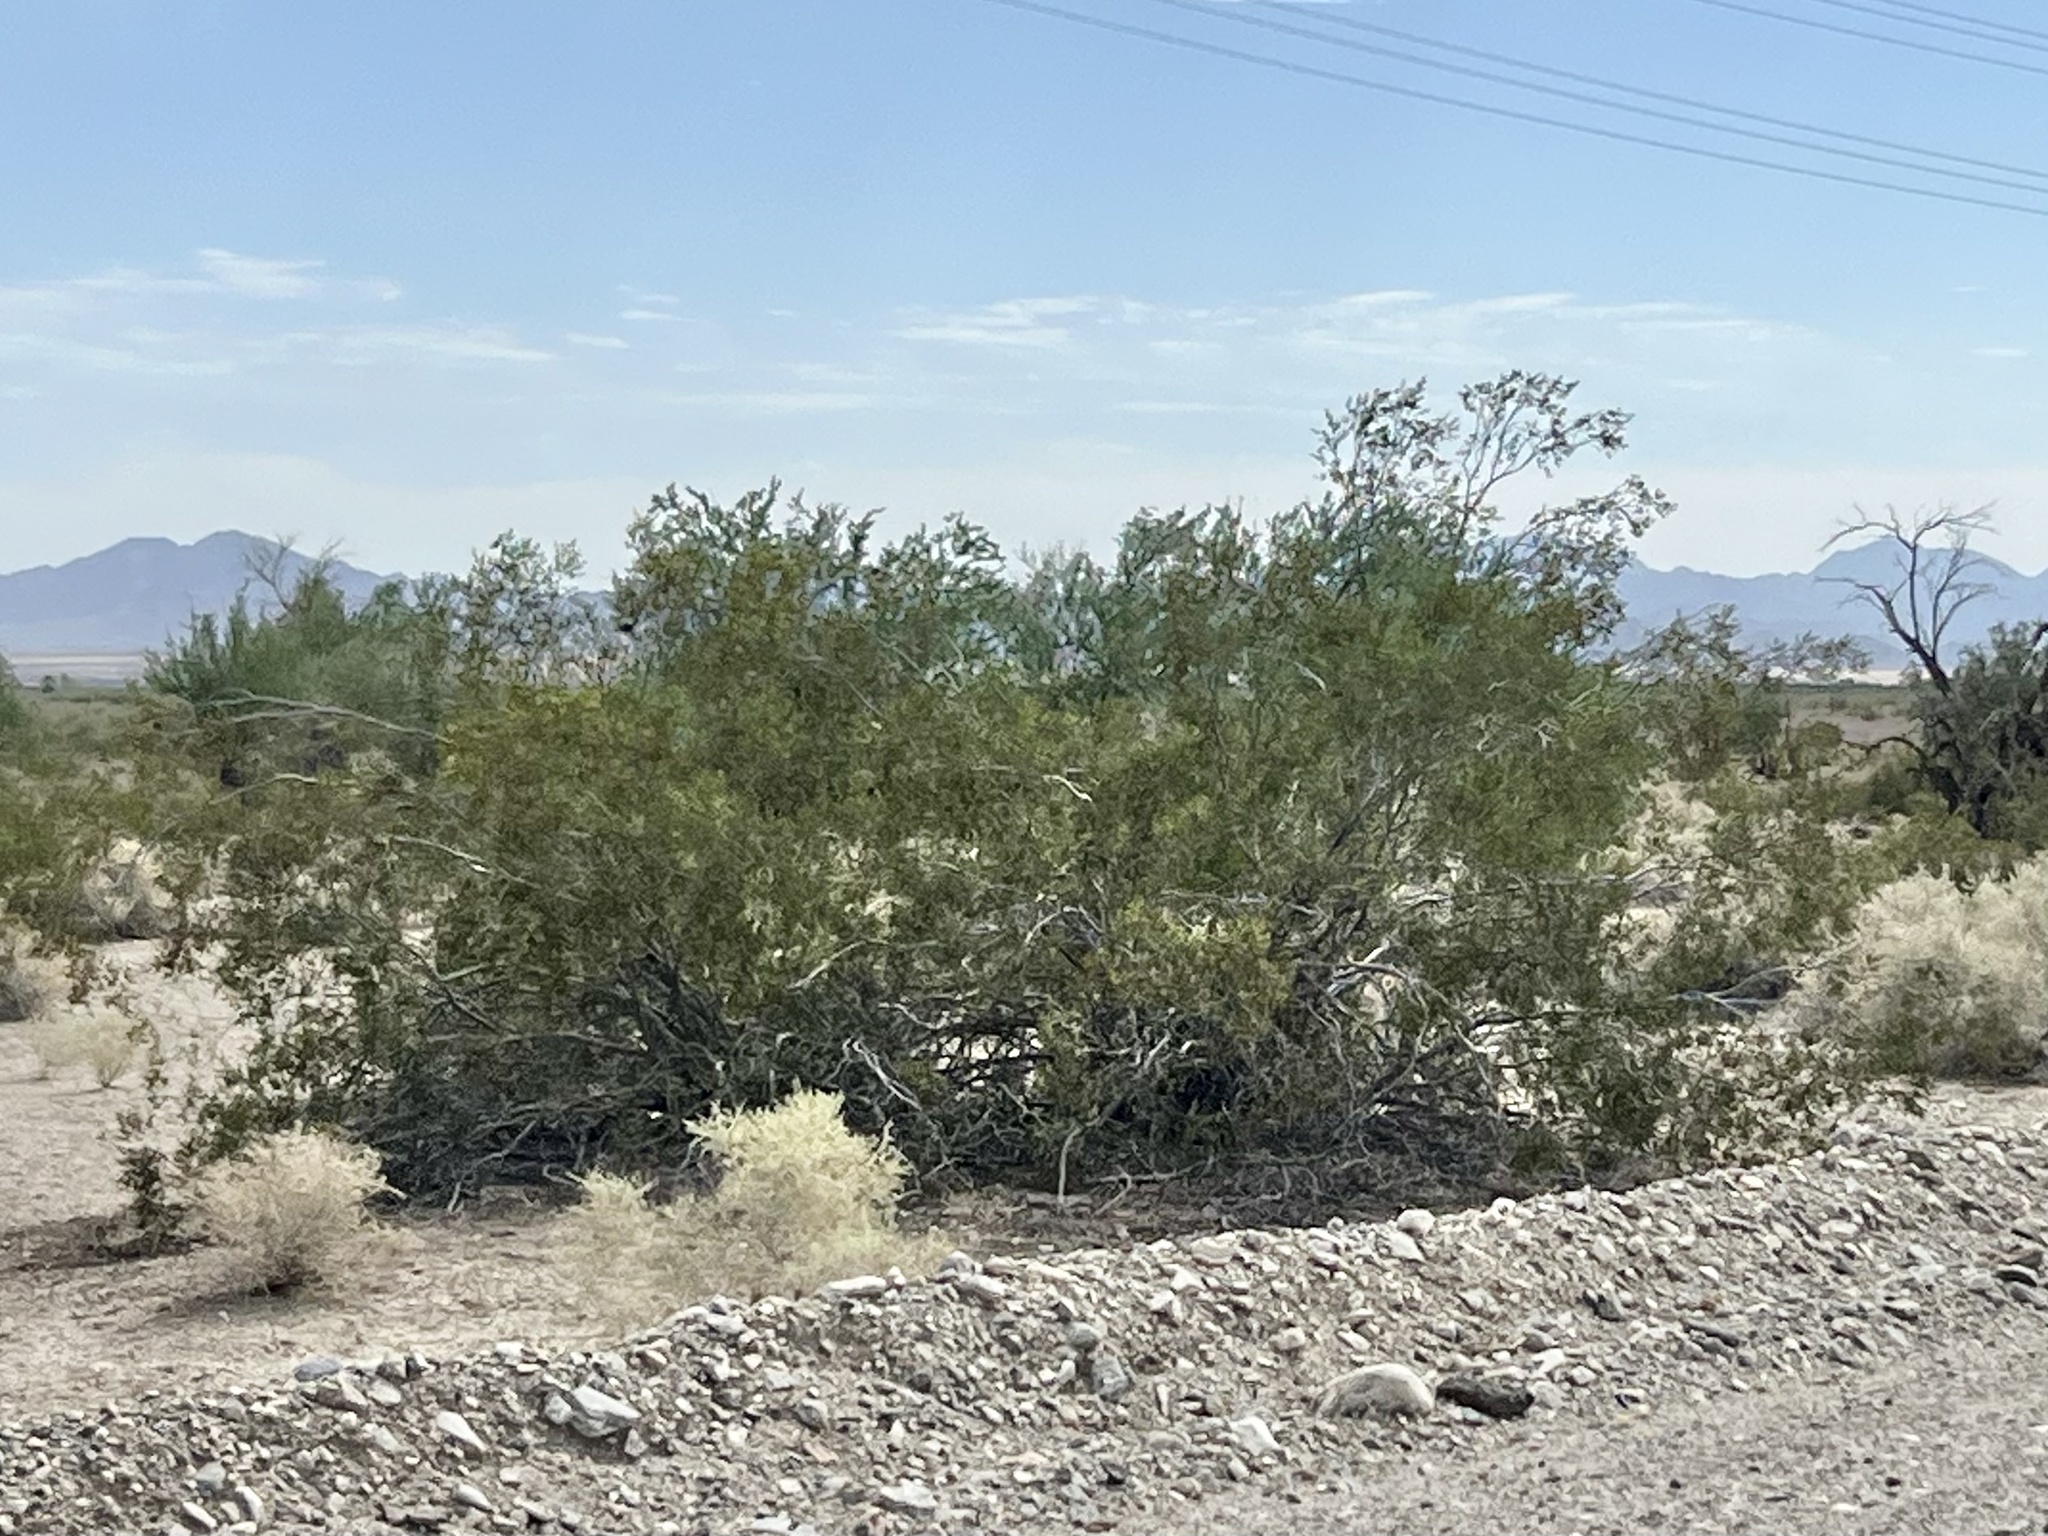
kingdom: Plantae
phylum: Tracheophyta
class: Magnoliopsida
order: Zygophyllales
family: Zygophyllaceae
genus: Larrea
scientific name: Larrea tridentata
